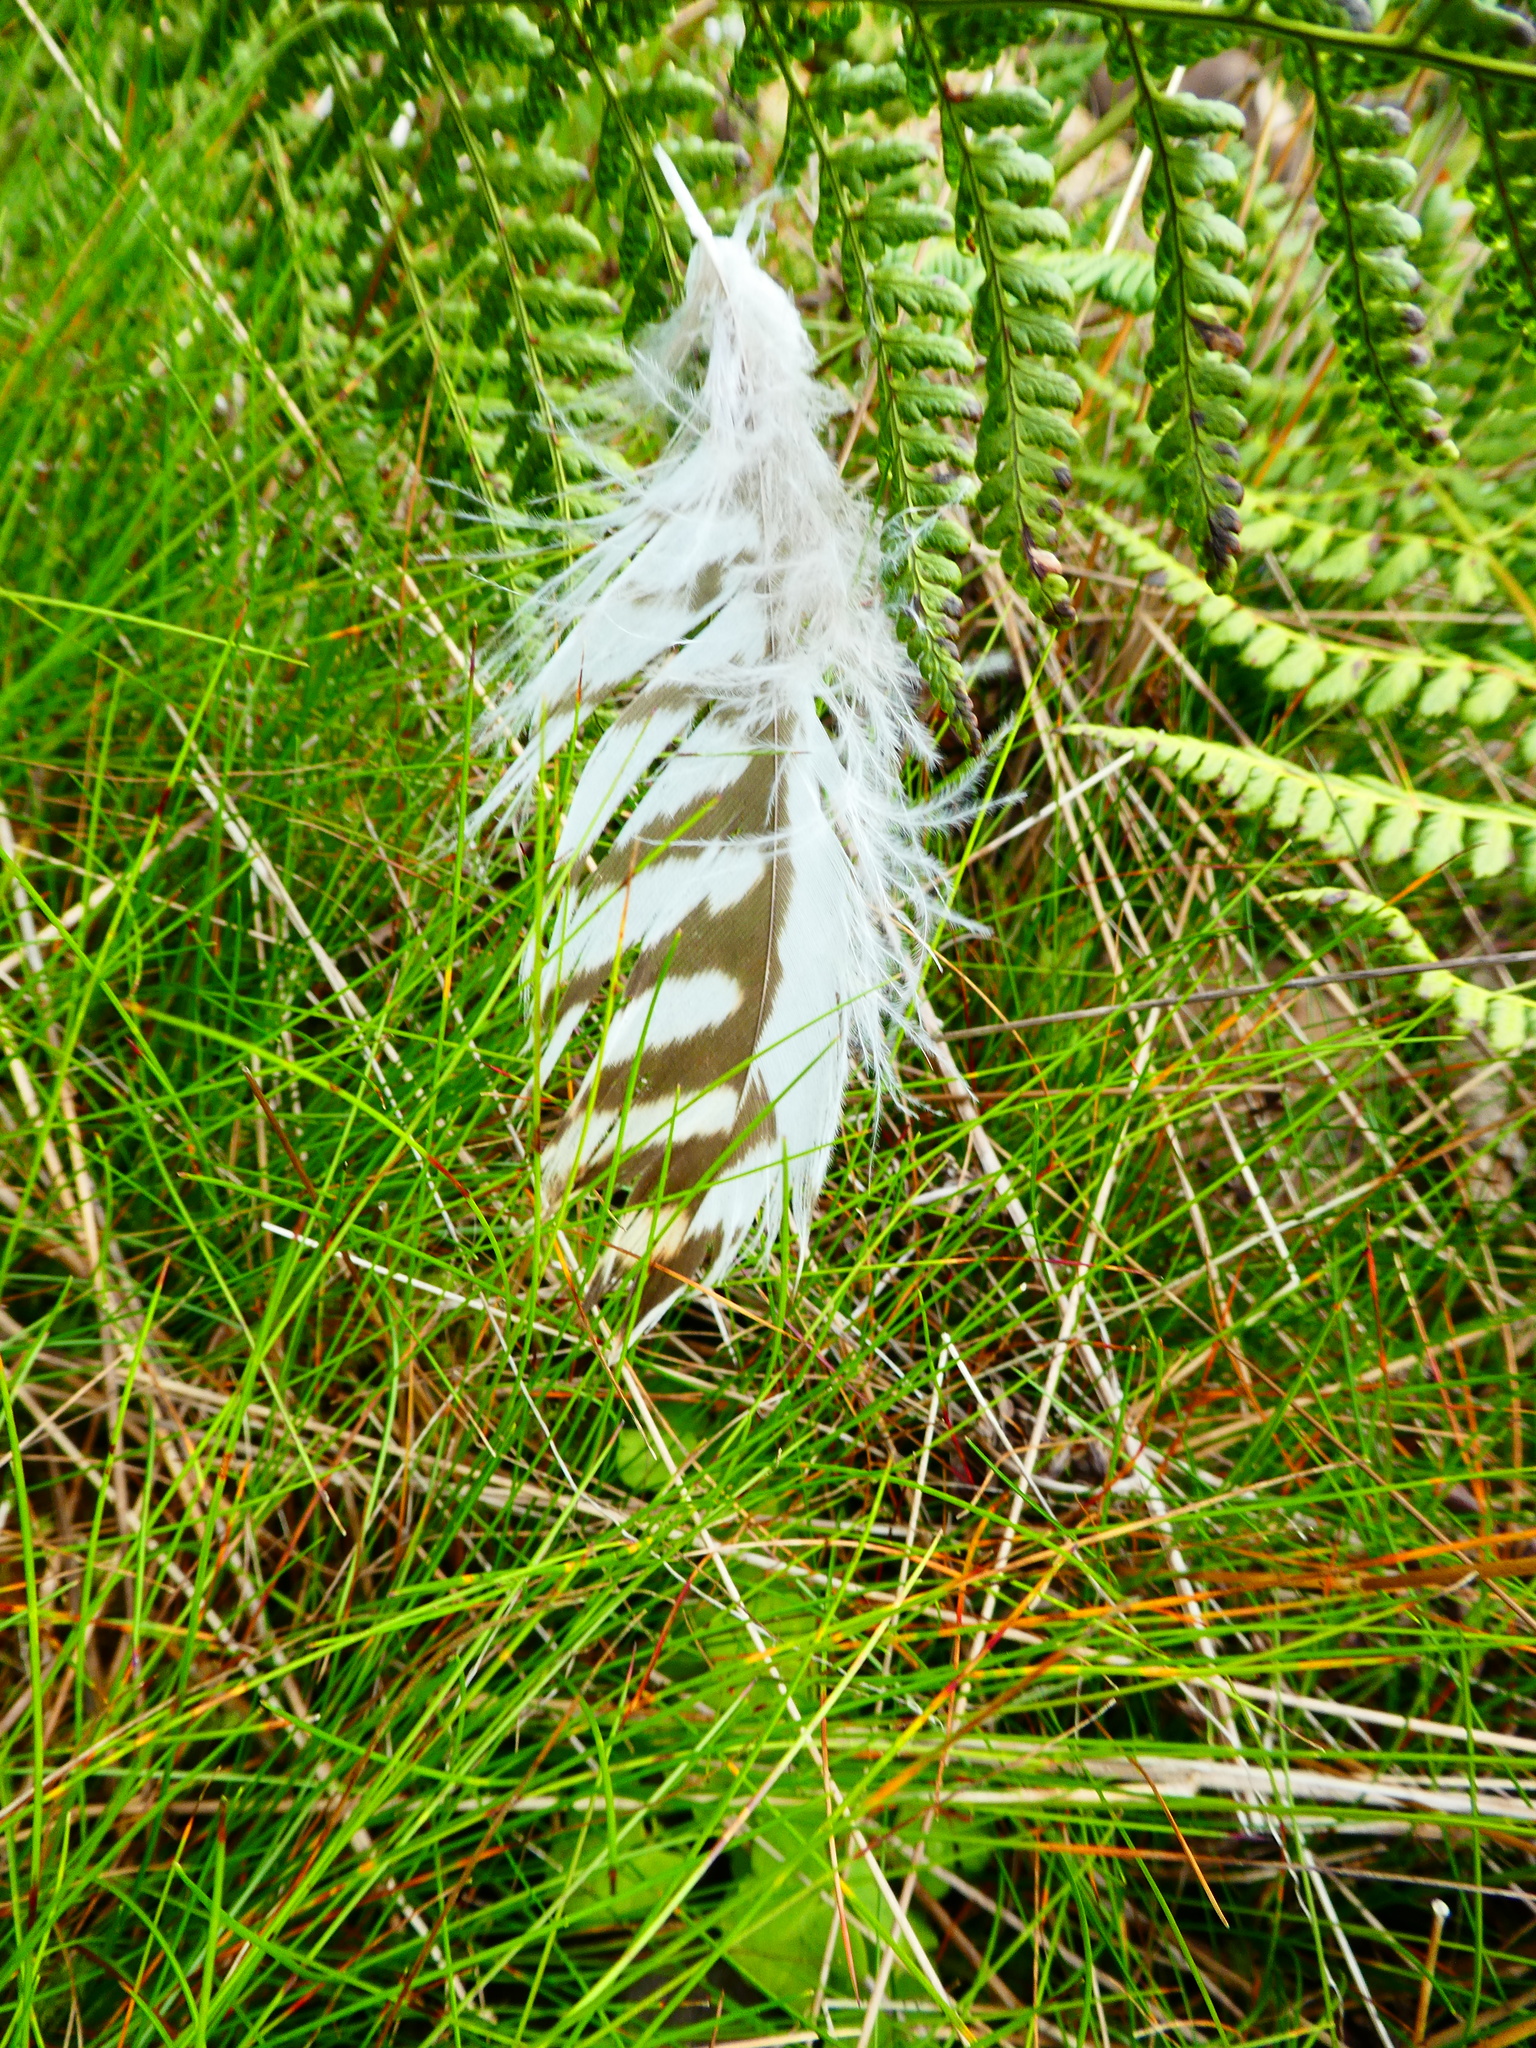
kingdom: Animalia
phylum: Chordata
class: Aves
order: Accipitriformes
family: Accipitridae
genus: Buteo
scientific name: Buteo buteo
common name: Common buzzard
